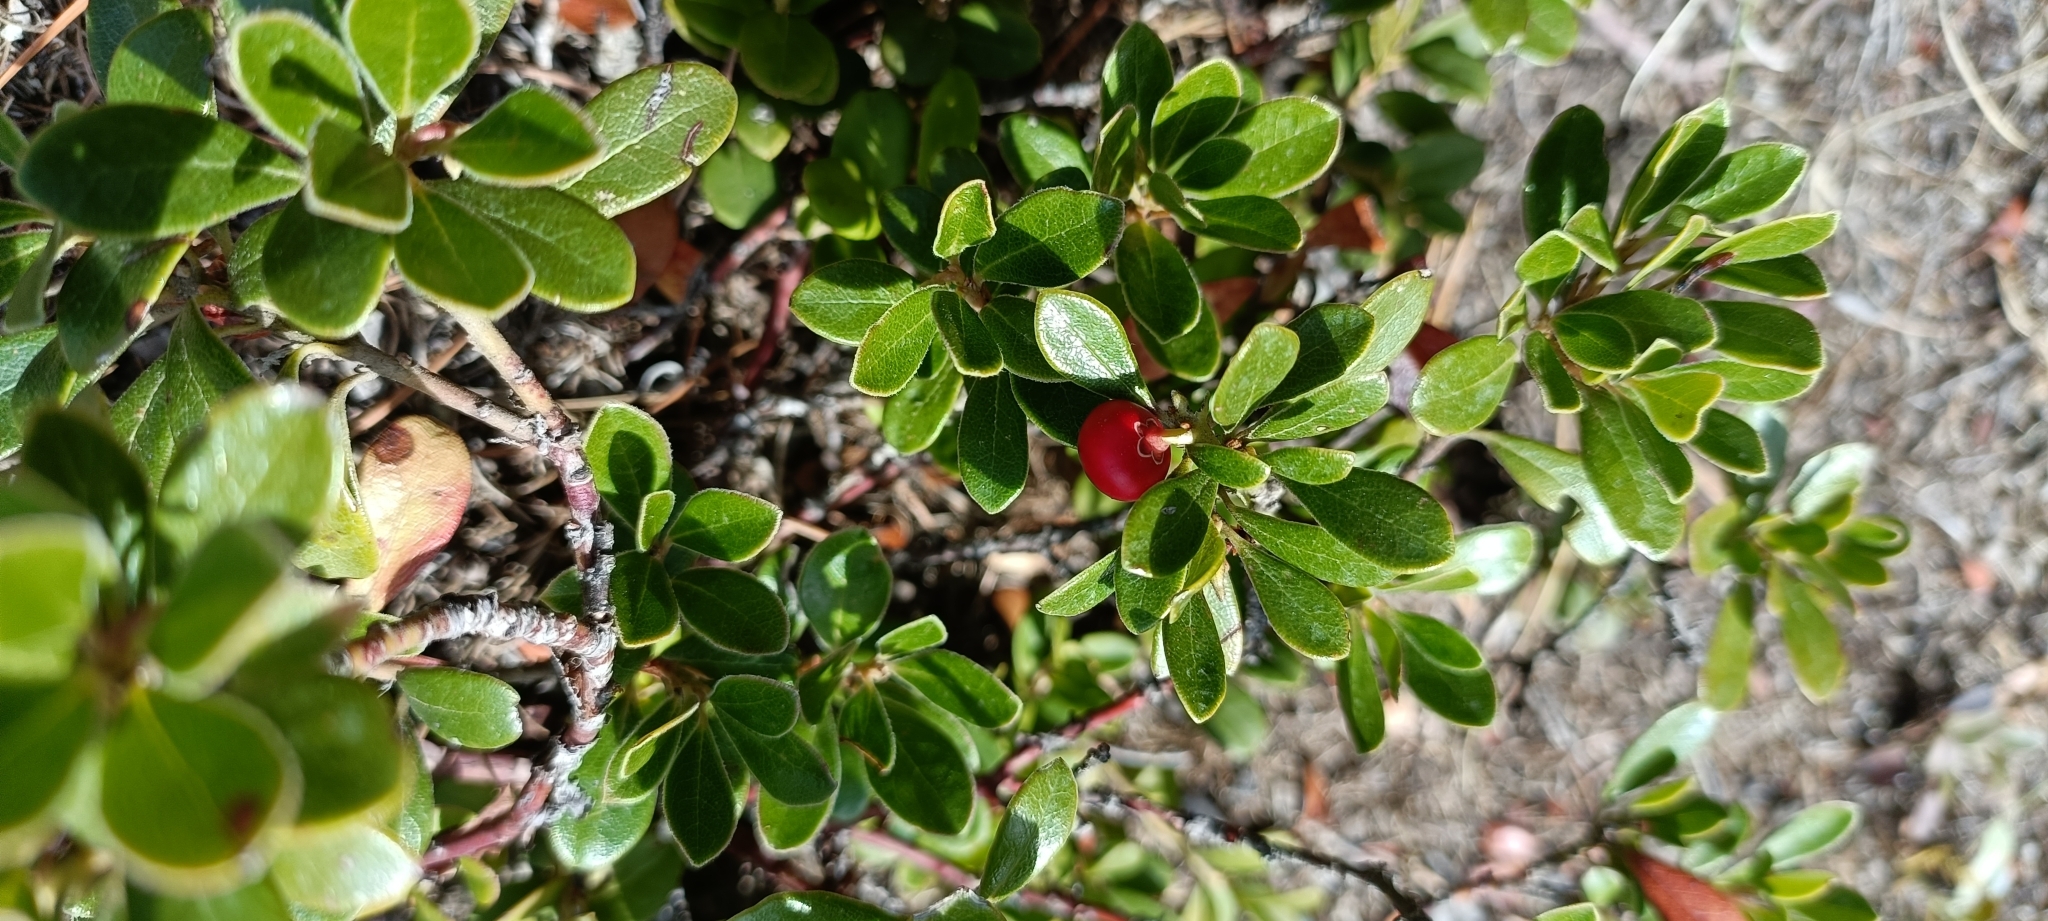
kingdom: Plantae
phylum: Tracheophyta
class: Magnoliopsida
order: Ericales
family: Ericaceae
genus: Arctostaphylos
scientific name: Arctostaphylos uva-ursi
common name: Bearberry
